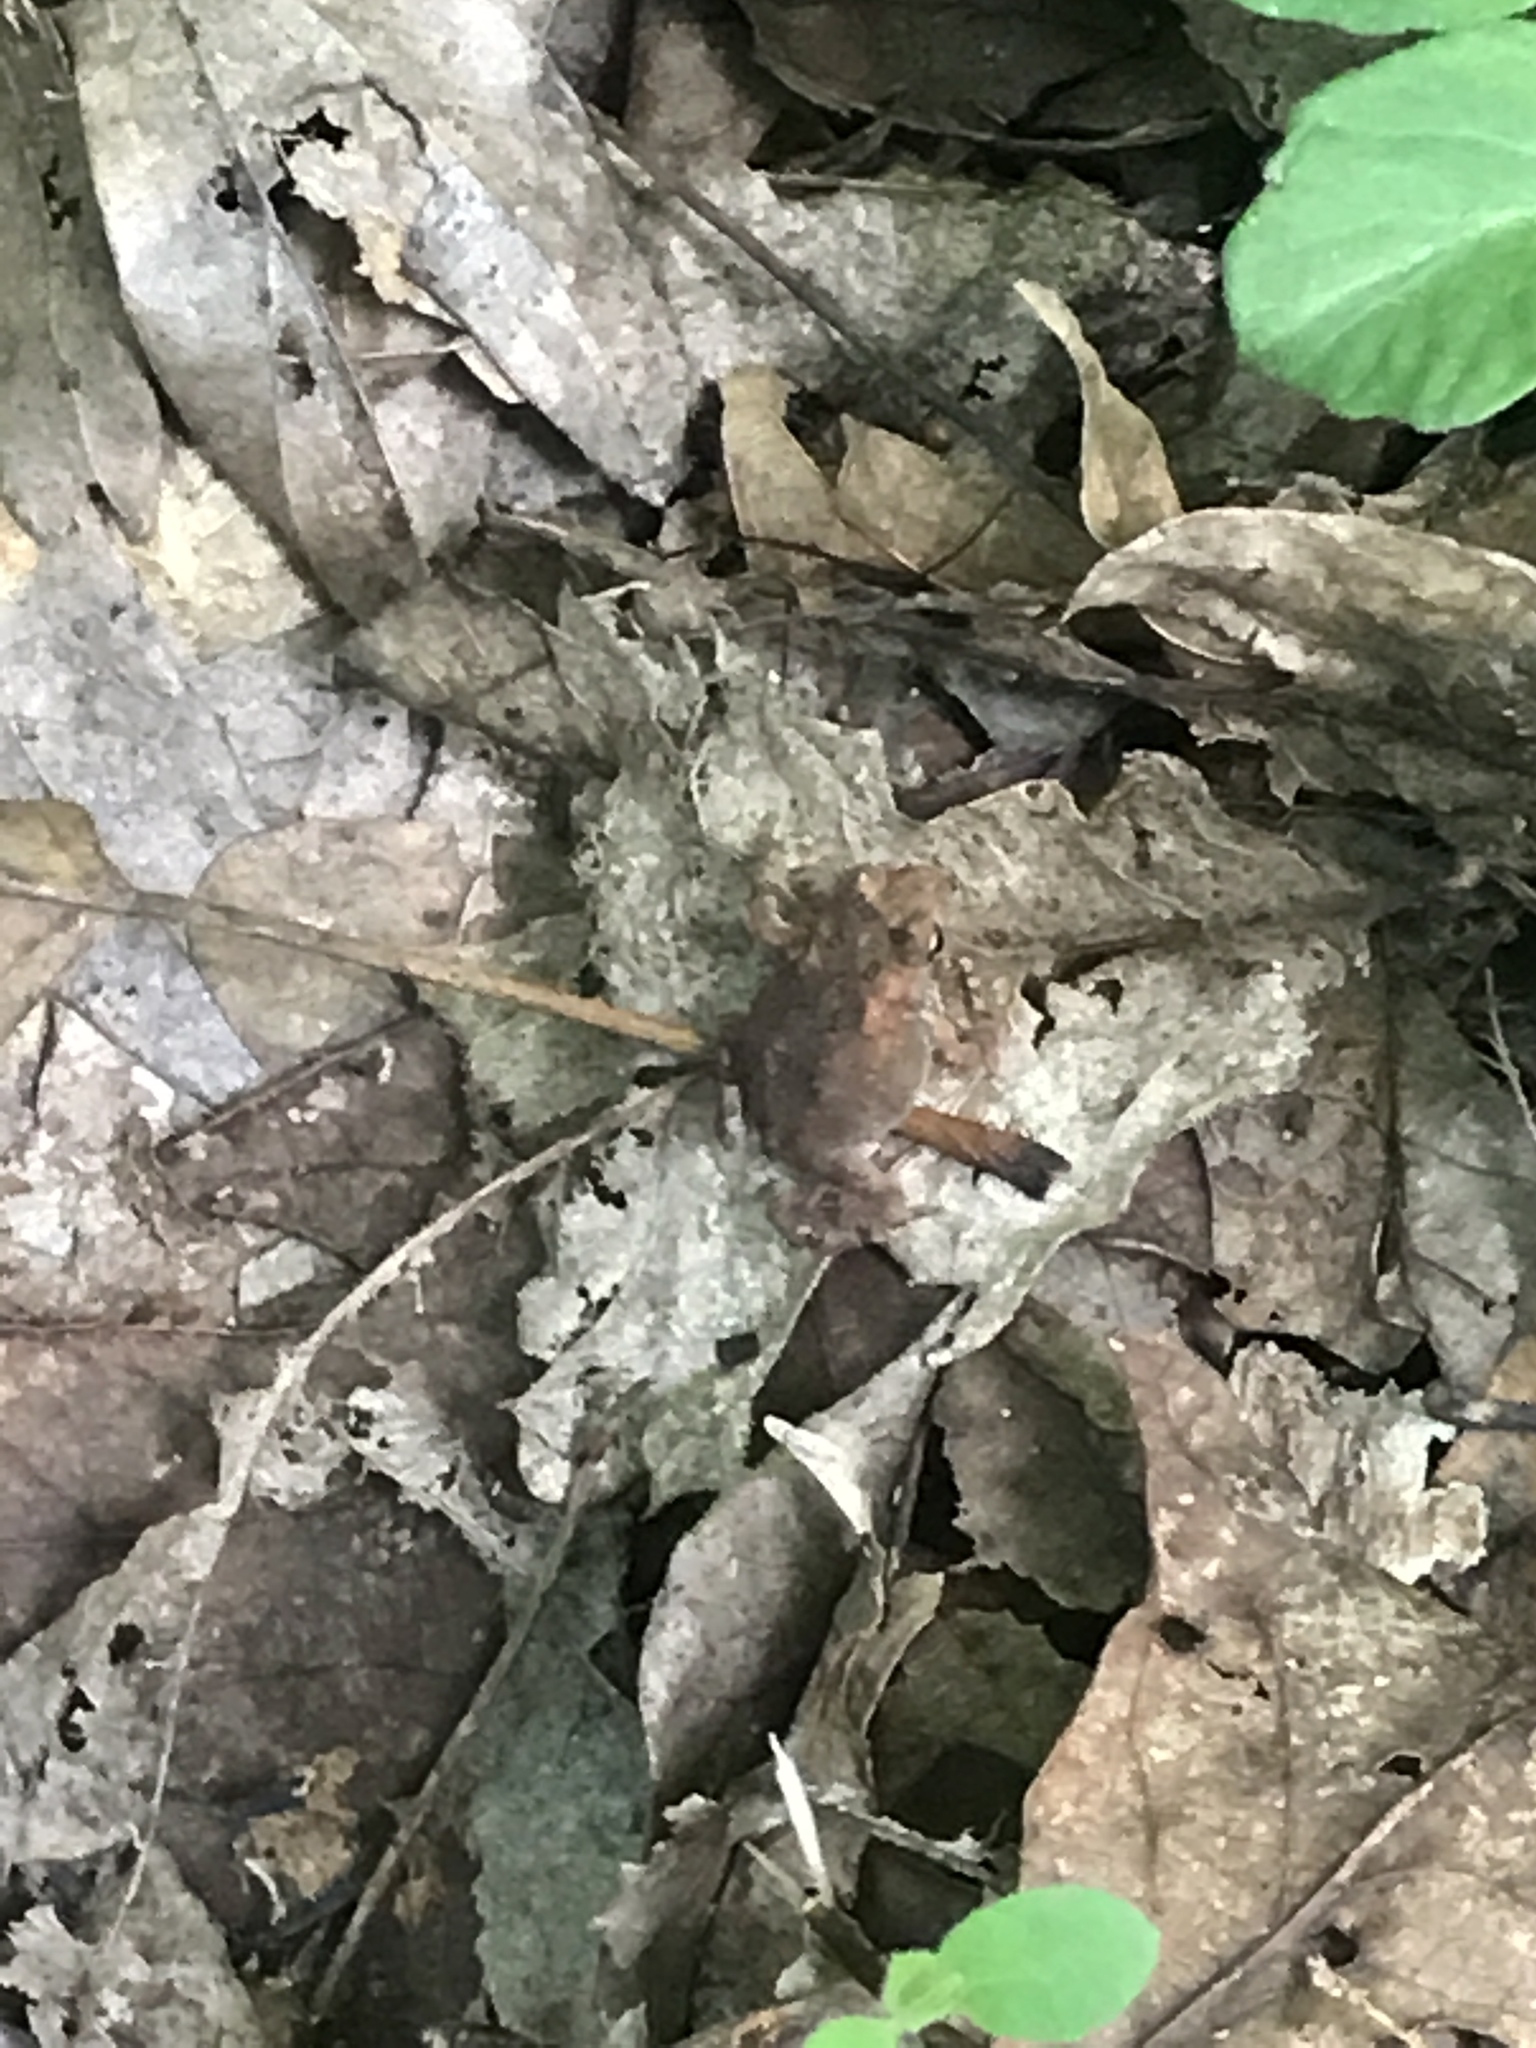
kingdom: Animalia
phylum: Chordata
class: Amphibia
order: Anura
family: Bufonidae
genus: Anaxyrus
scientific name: Anaxyrus americanus
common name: American toad
